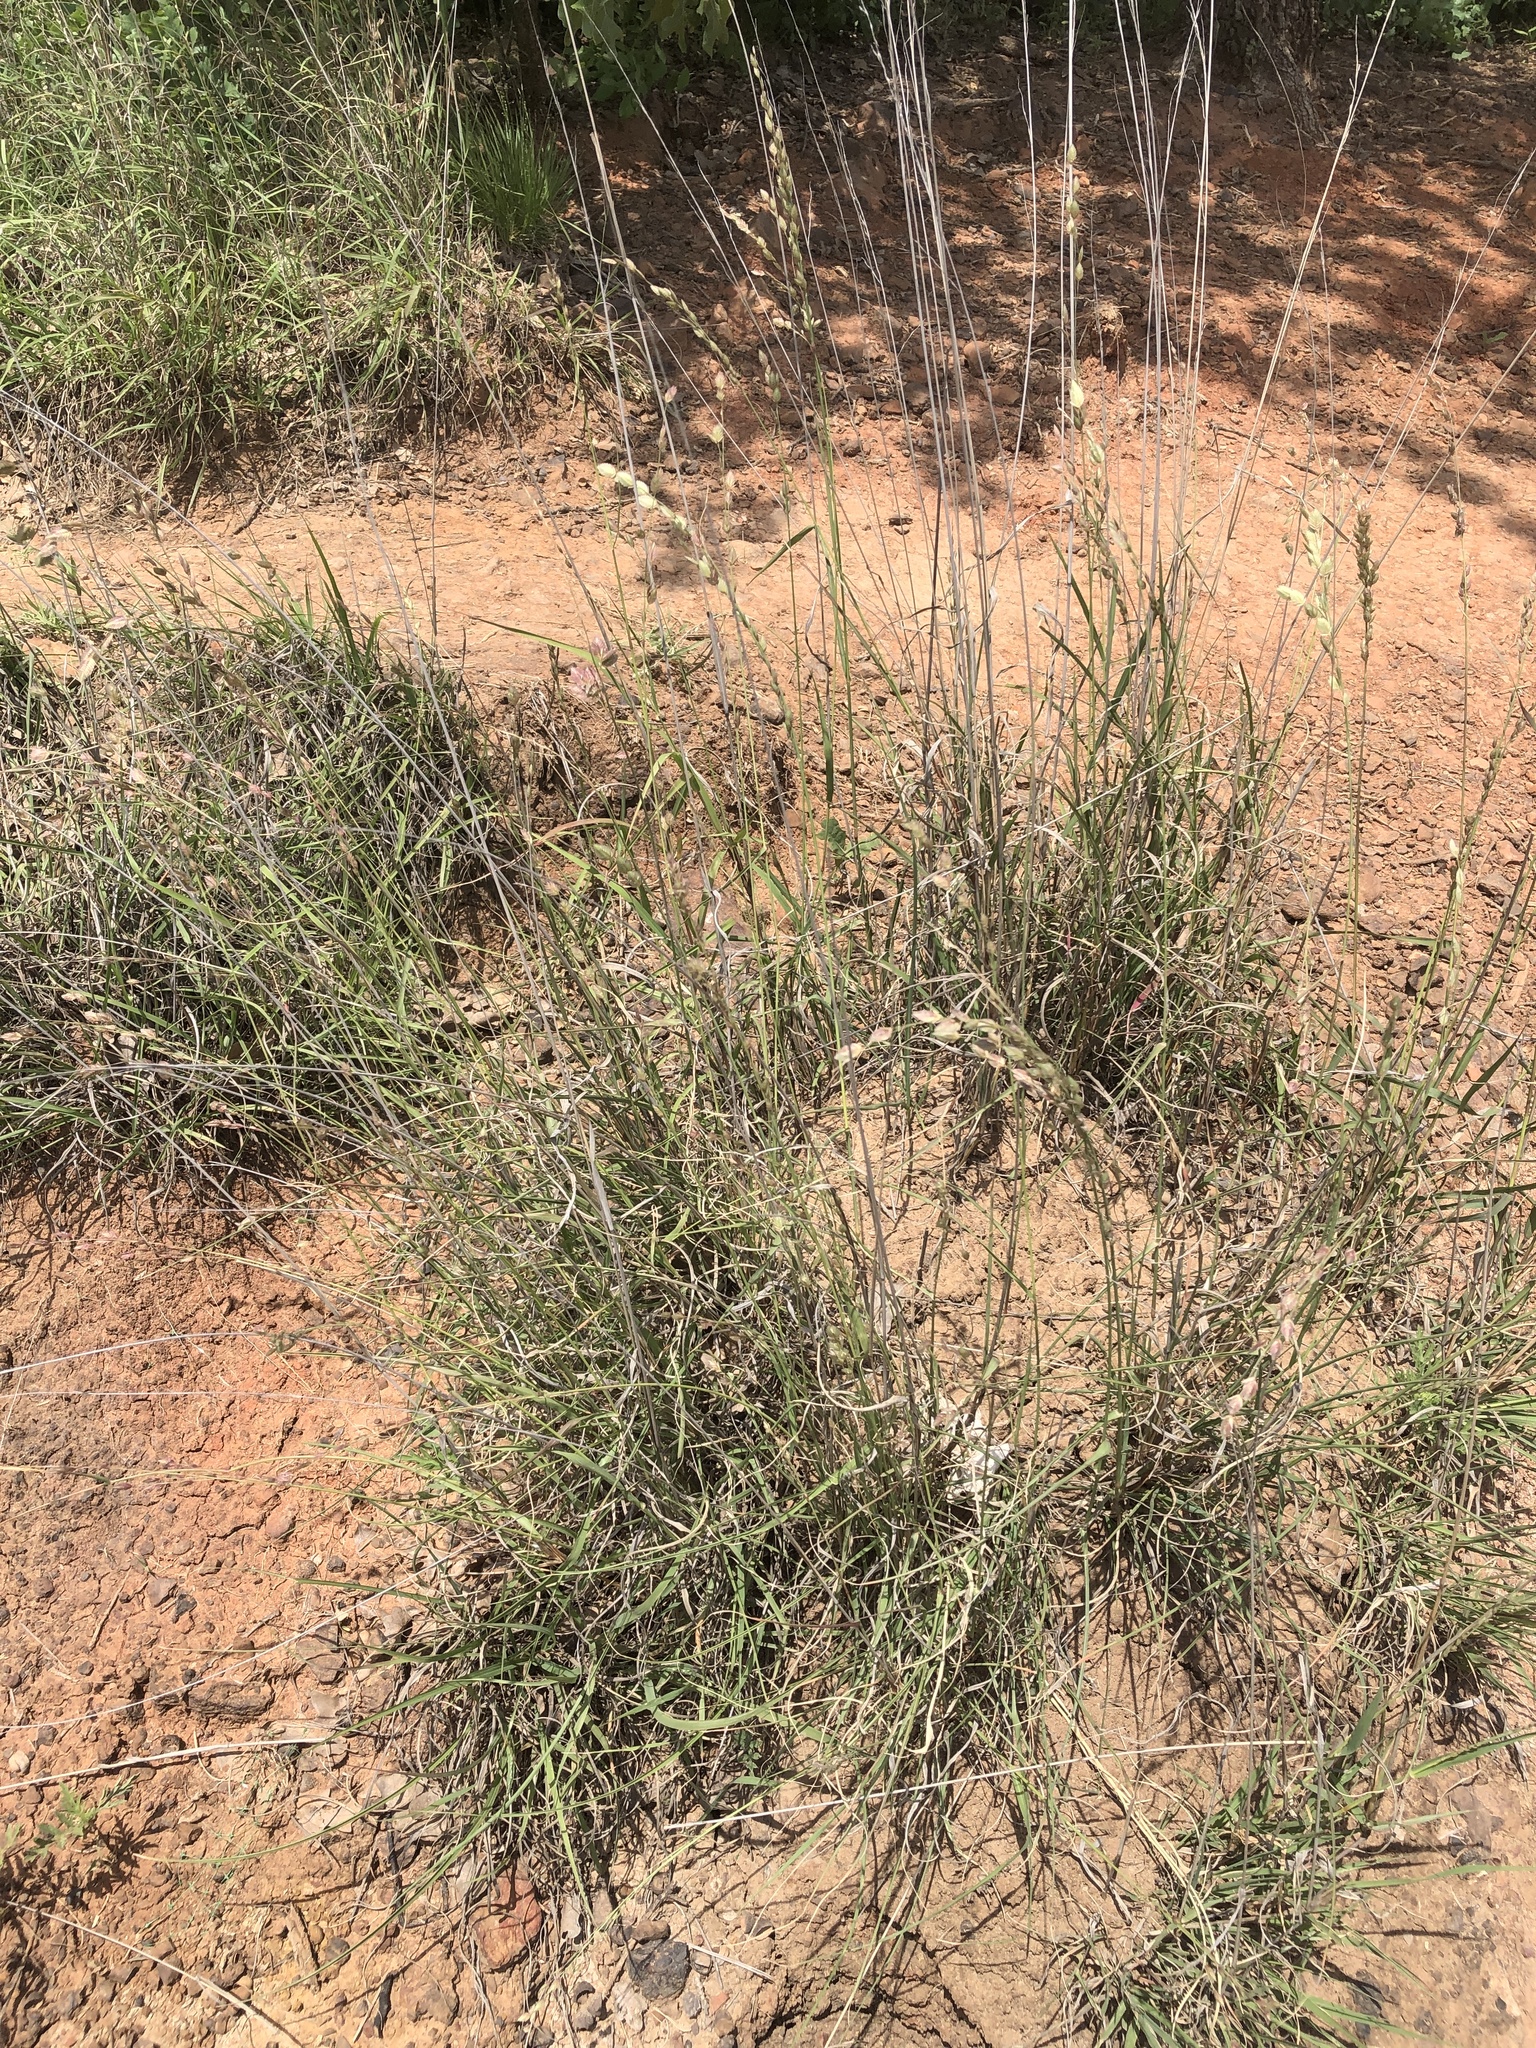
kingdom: Plantae
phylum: Tracheophyta
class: Liliopsida
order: Poales
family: Poaceae
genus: Eragrostis
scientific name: Eragrostis superba
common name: Wilman lovegrass
